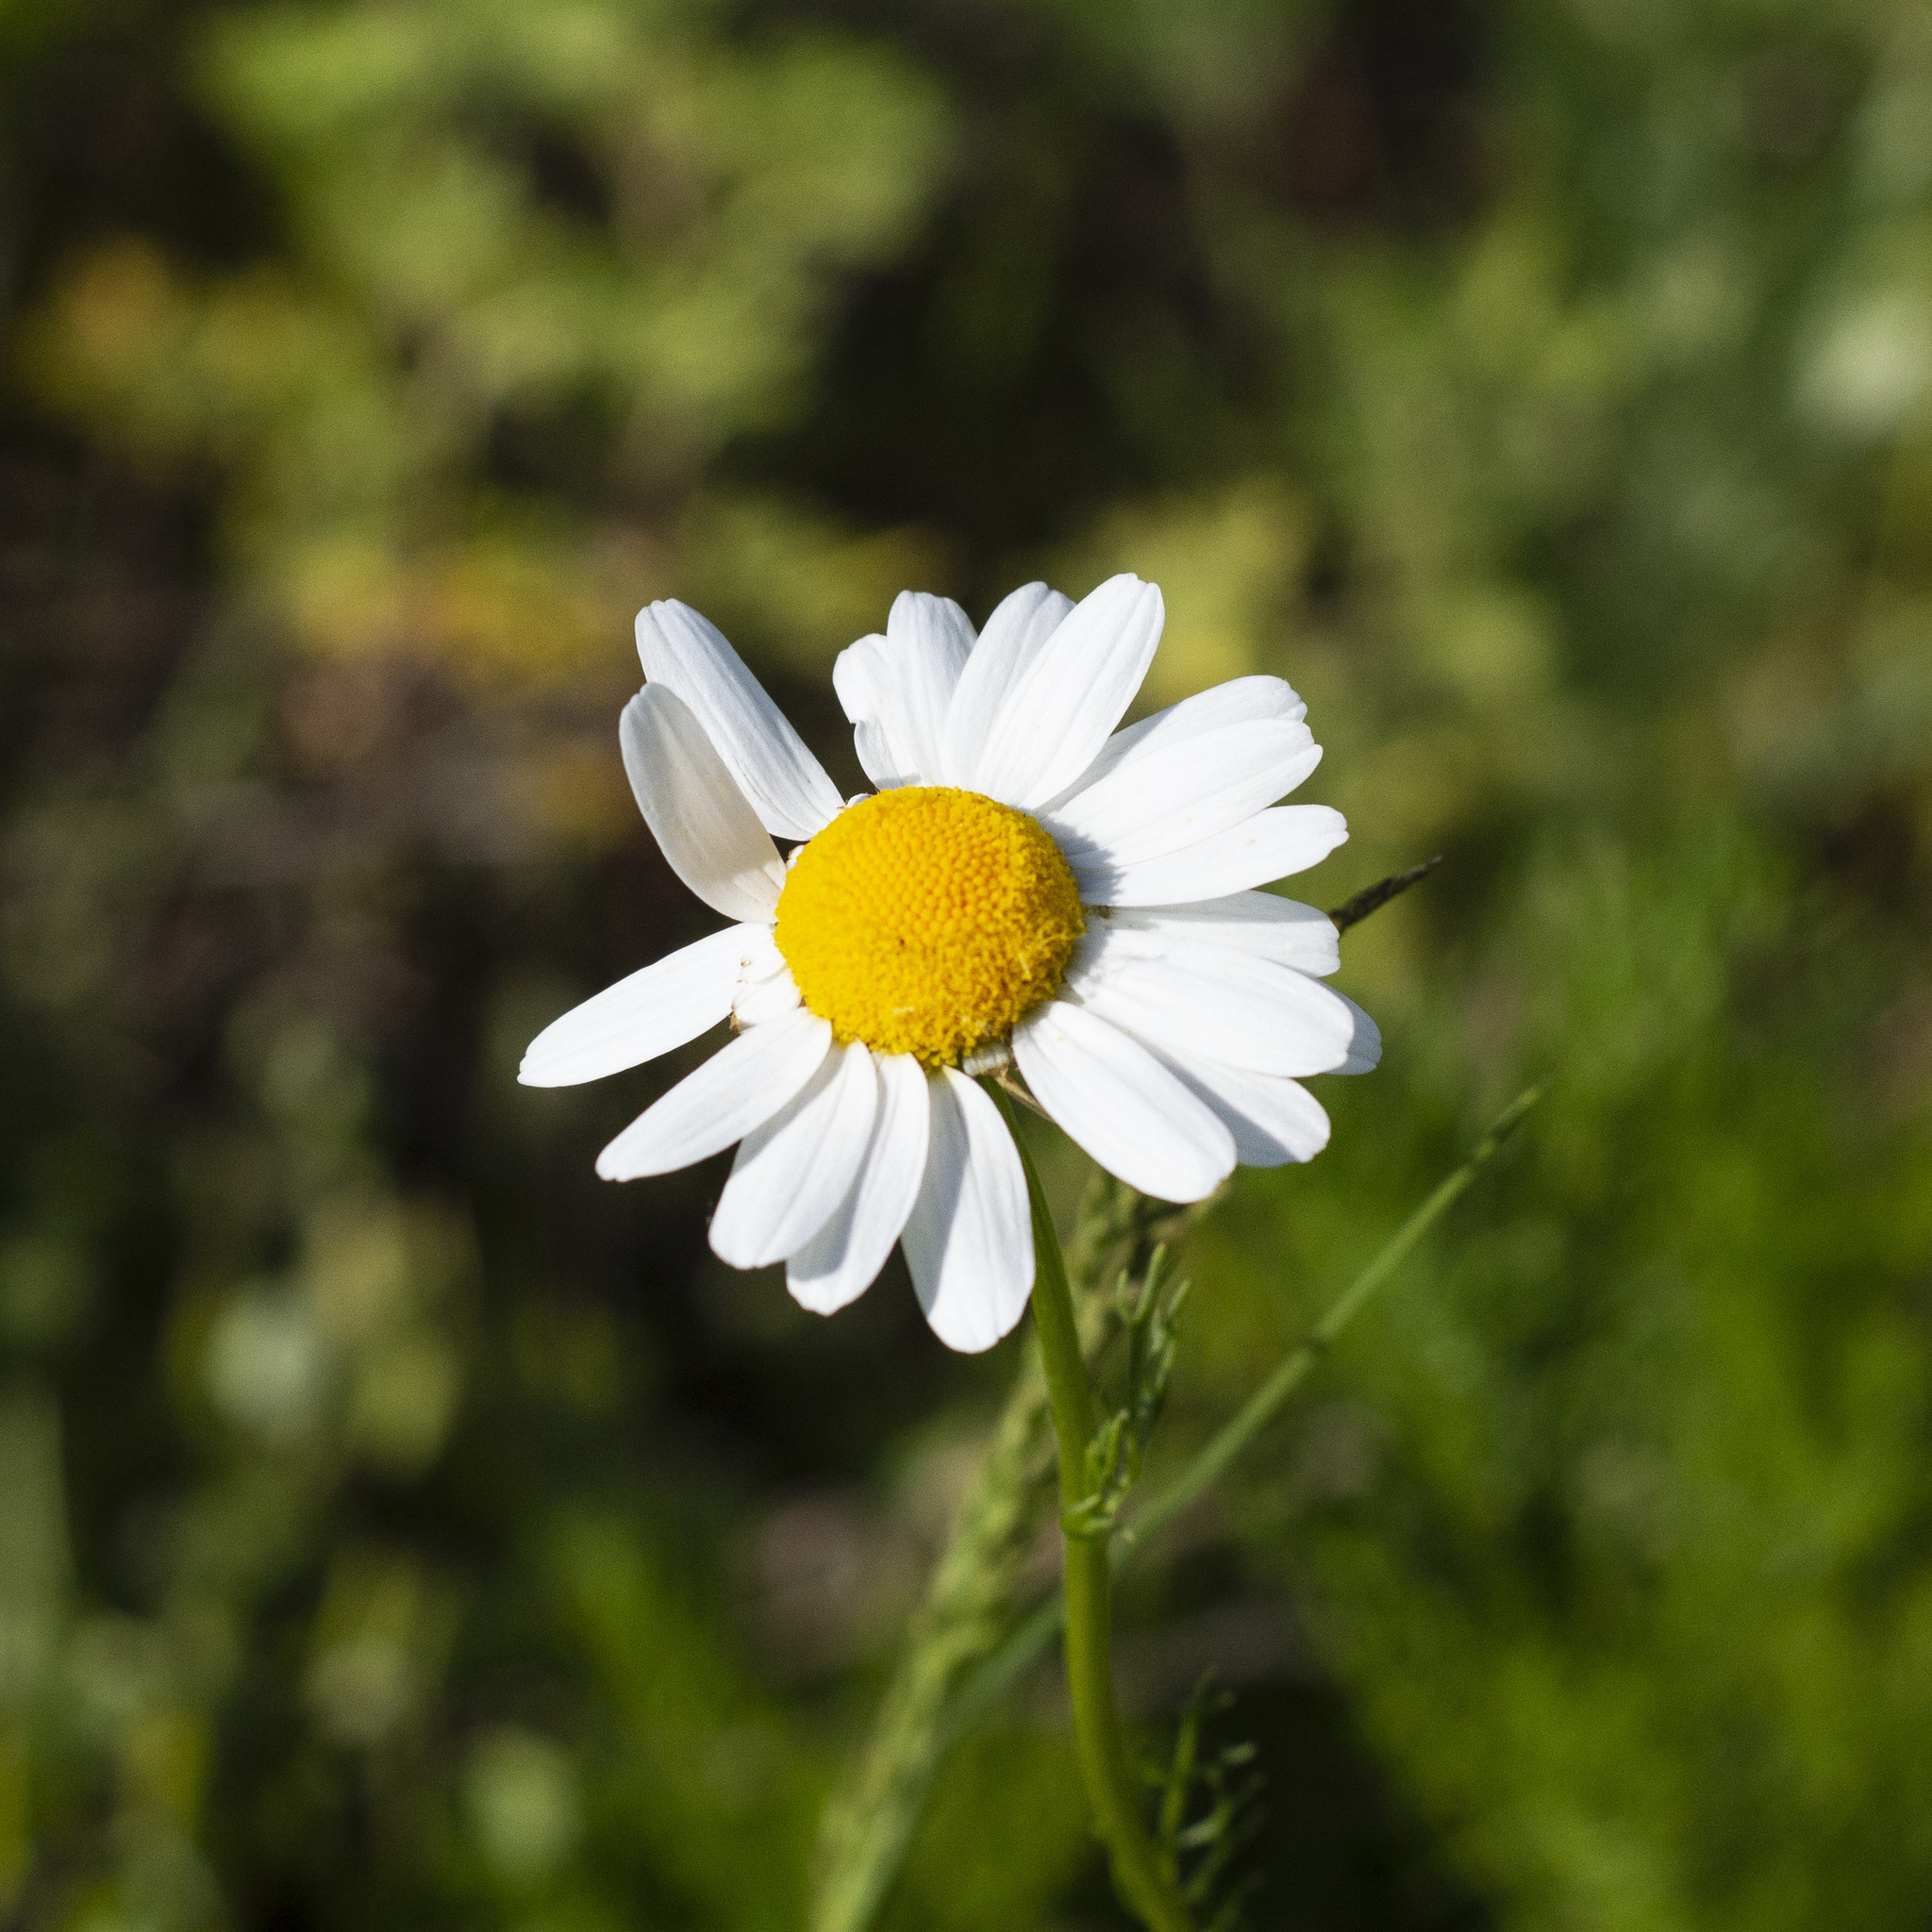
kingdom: Plantae
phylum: Tracheophyta
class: Magnoliopsida
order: Asterales
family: Asteraceae
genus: Tripleurospermum
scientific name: Tripleurospermum inodorum
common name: Scentless mayweed
